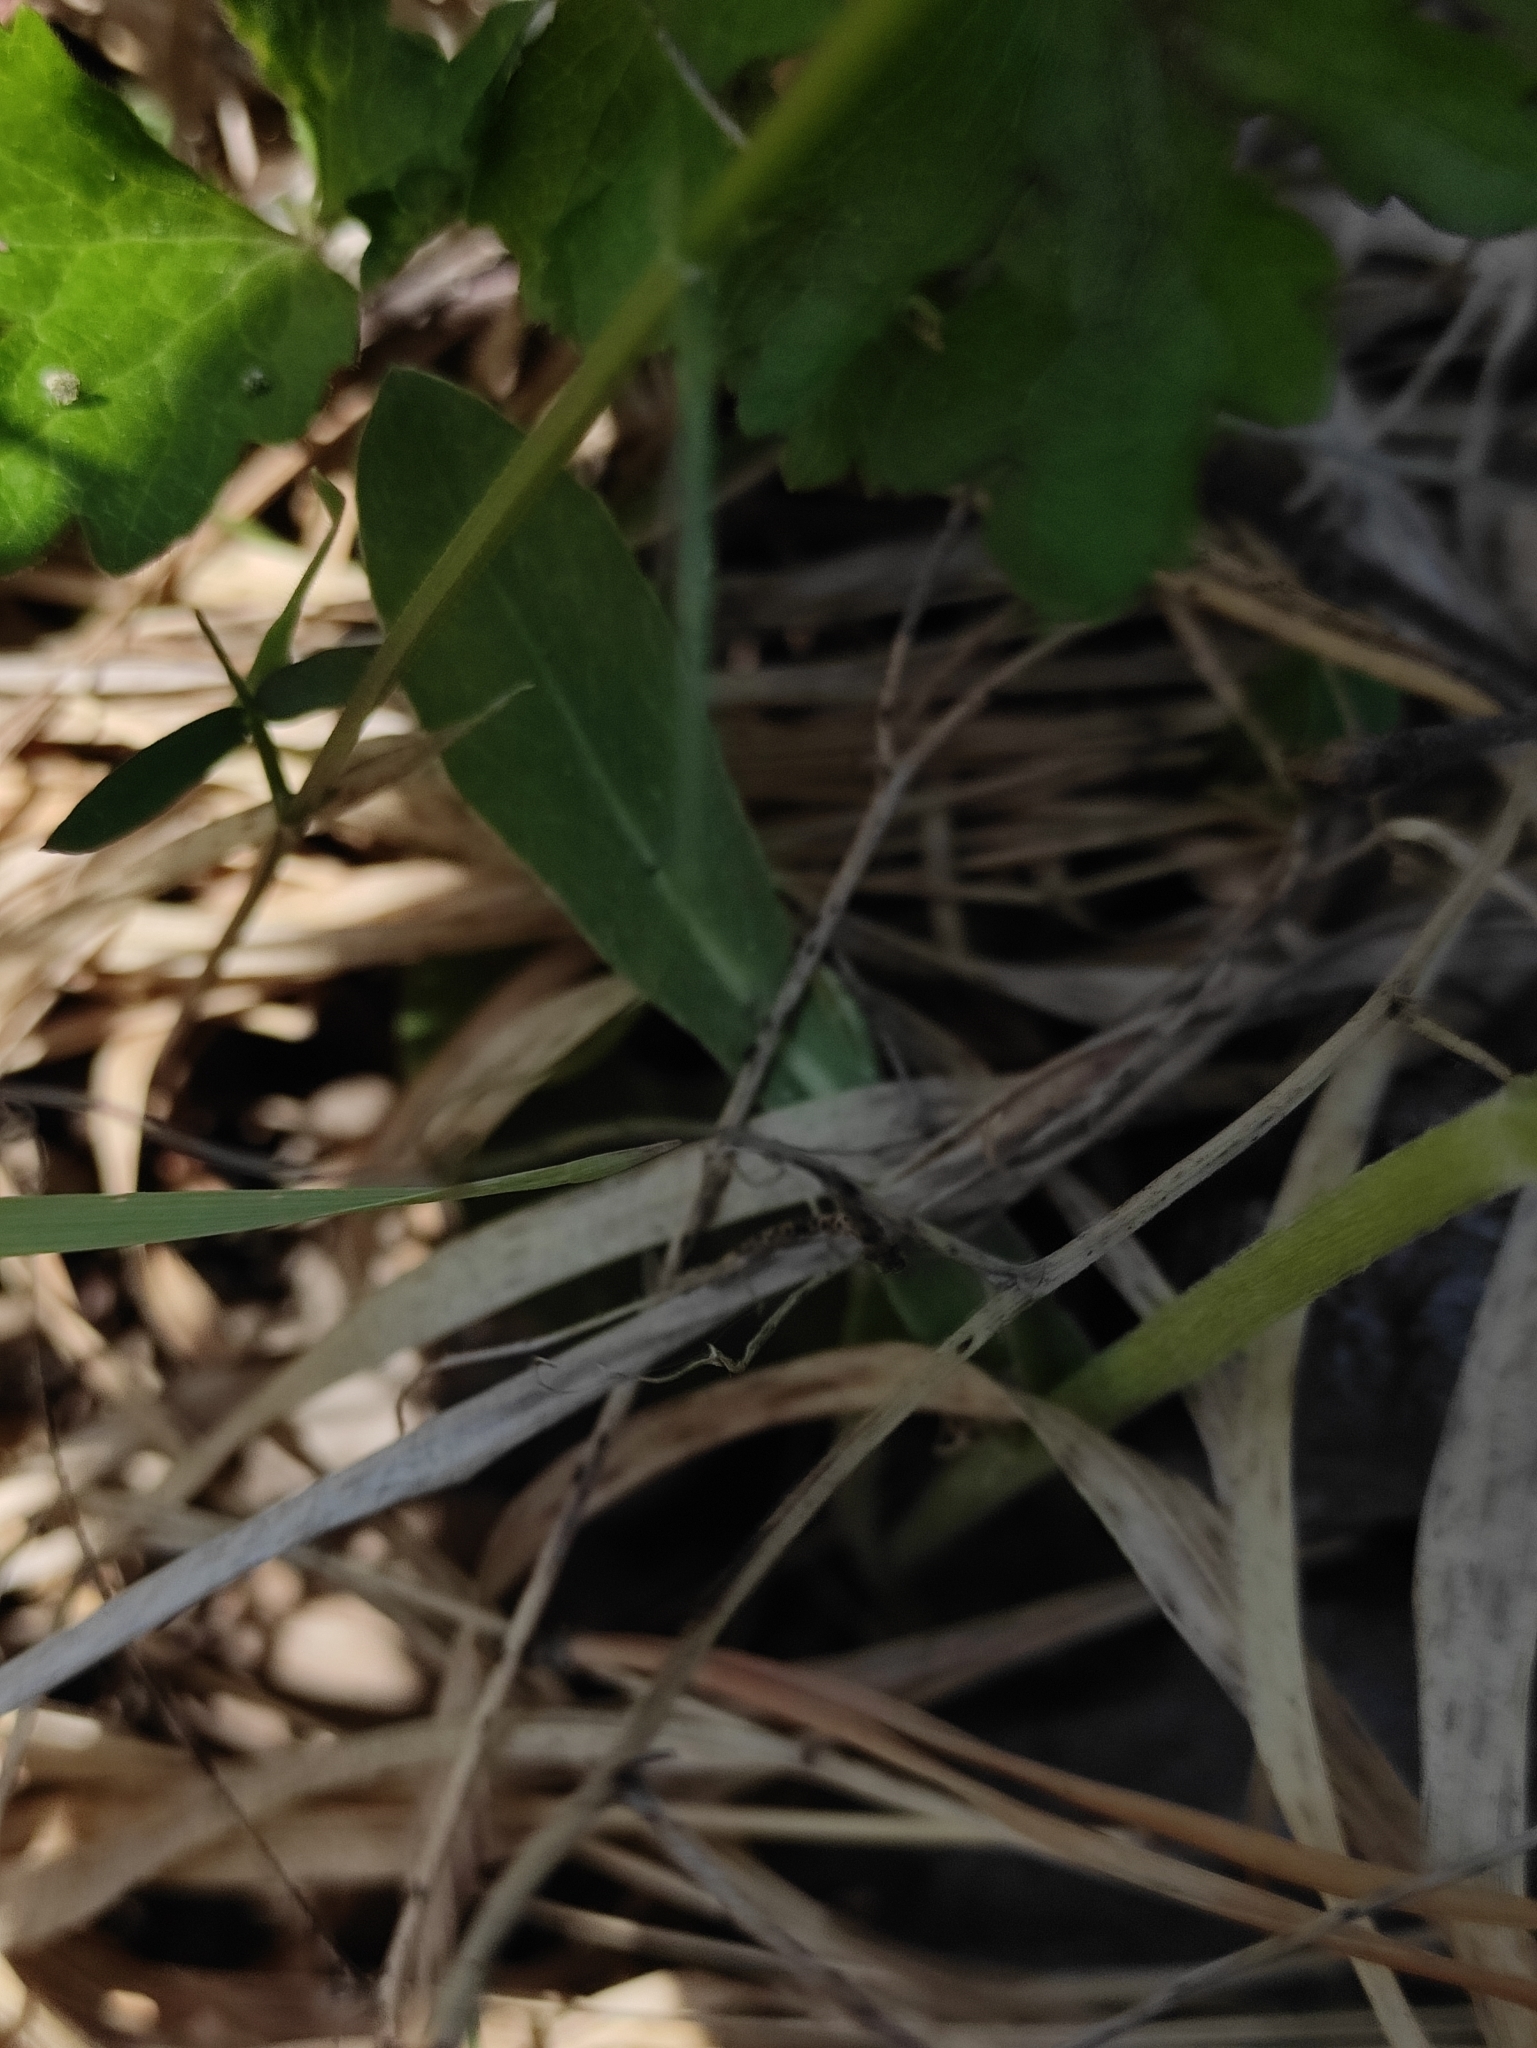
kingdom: Plantae
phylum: Tracheophyta
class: Magnoliopsida
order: Asterales
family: Asteraceae
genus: Tephroseris
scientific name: Tephroseris integrifolia
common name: Field fleawort
